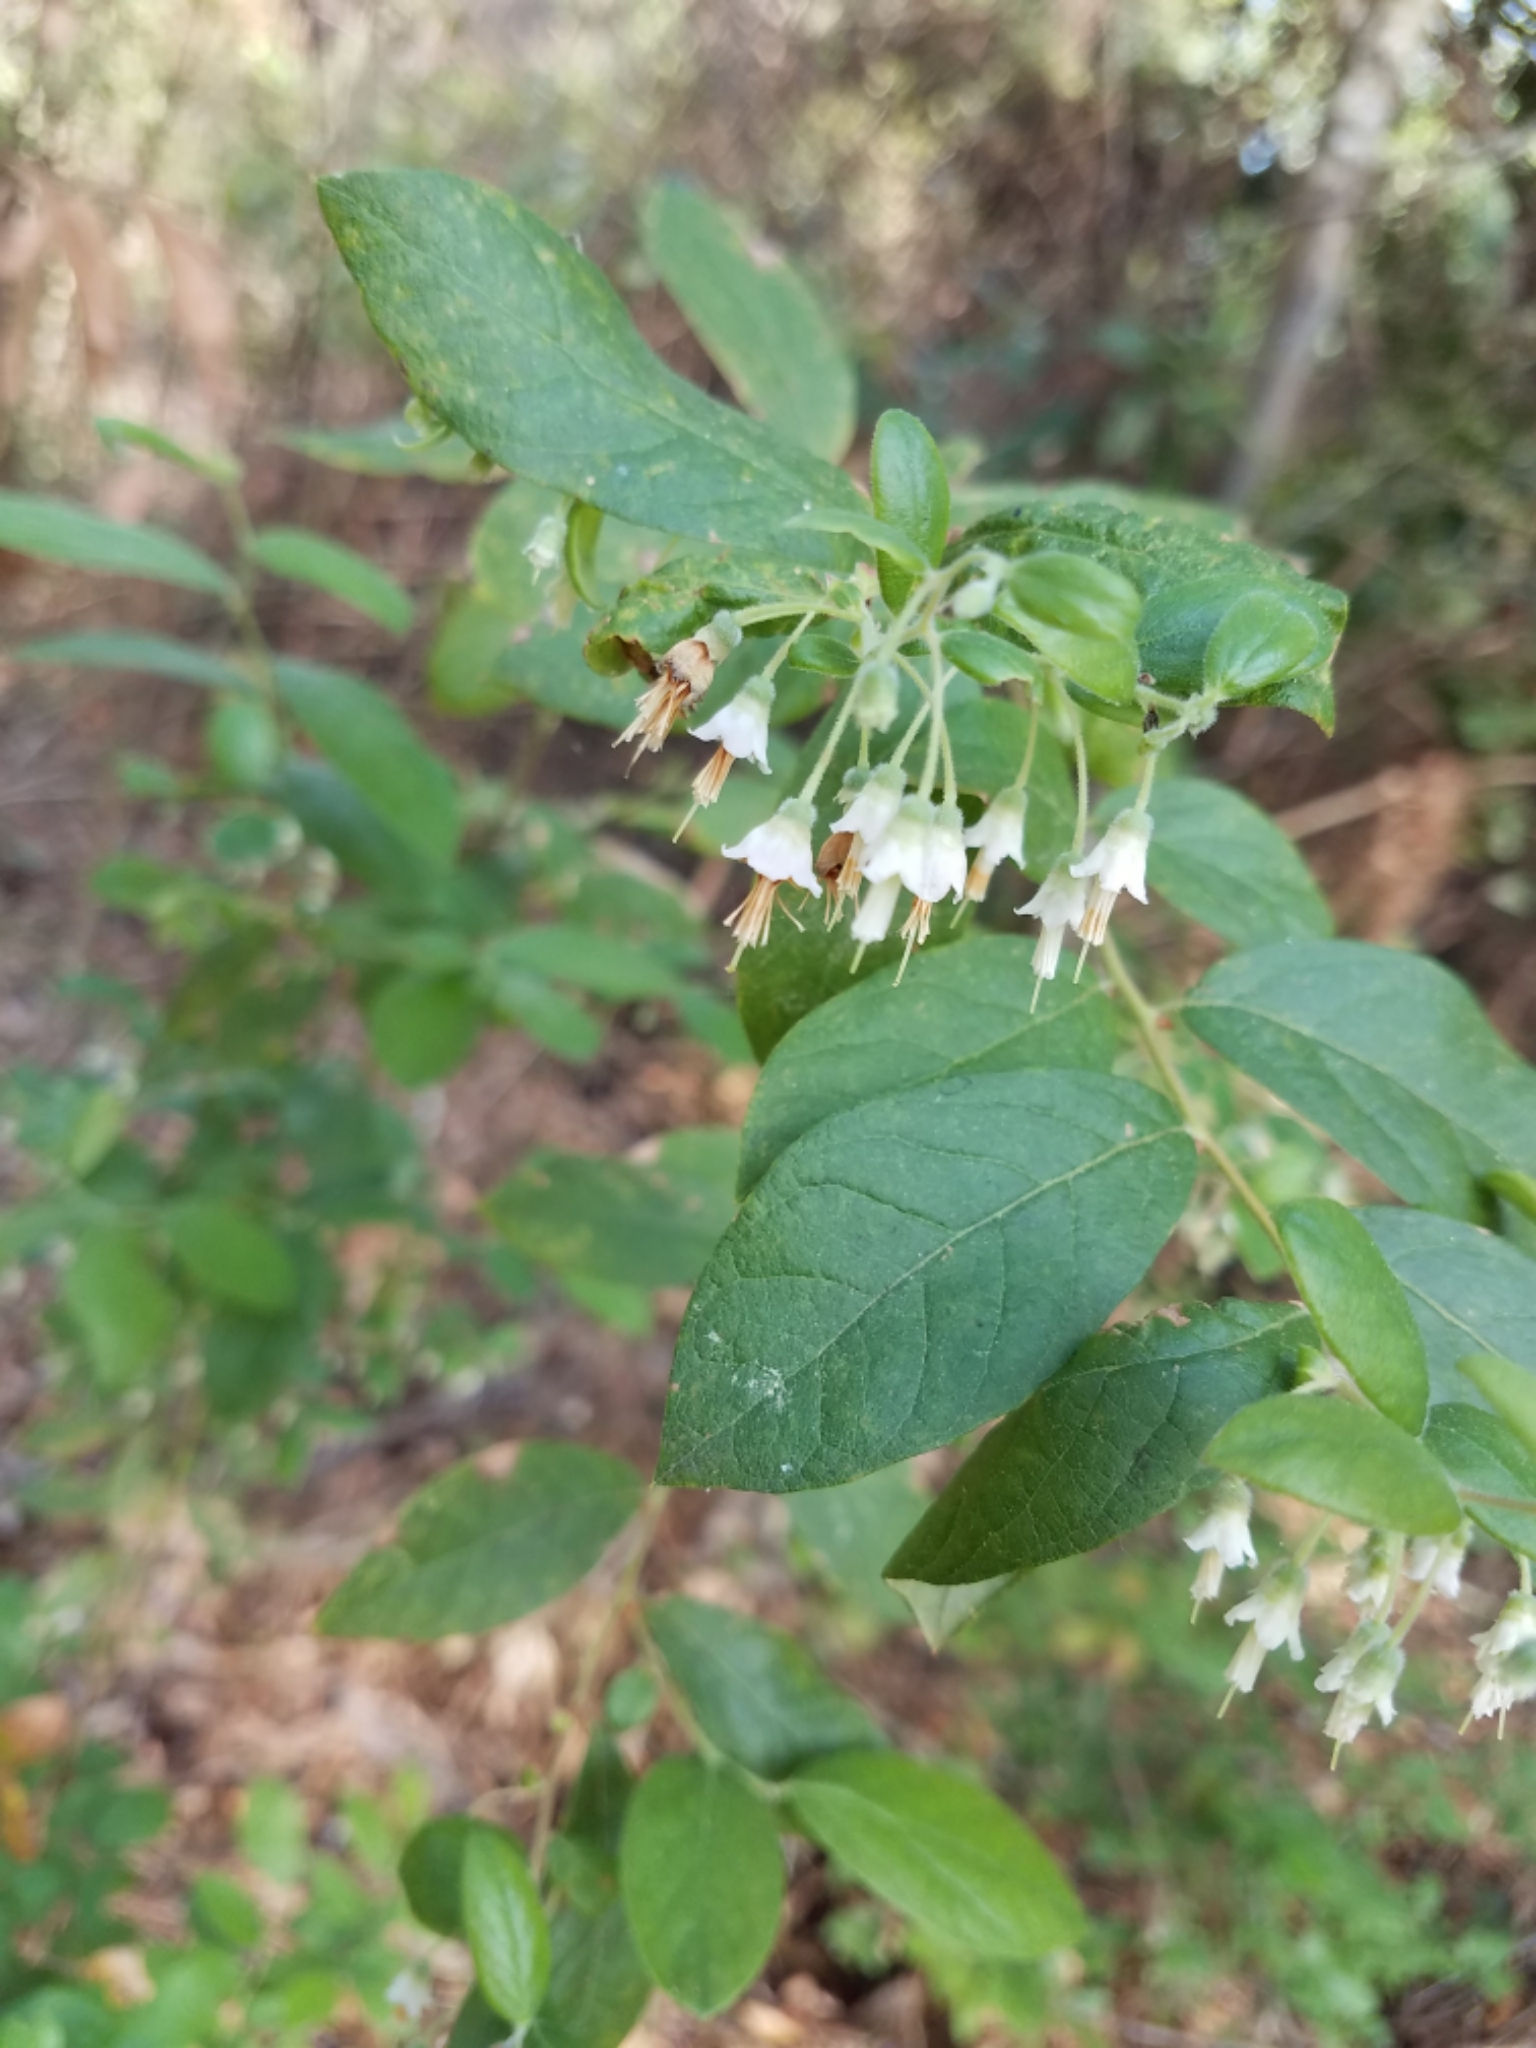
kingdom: Plantae
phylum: Tracheophyta
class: Magnoliopsida
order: Ericales
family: Ericaceae
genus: Vaccinium
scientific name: Vaccinium stamineum
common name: Deerberry
